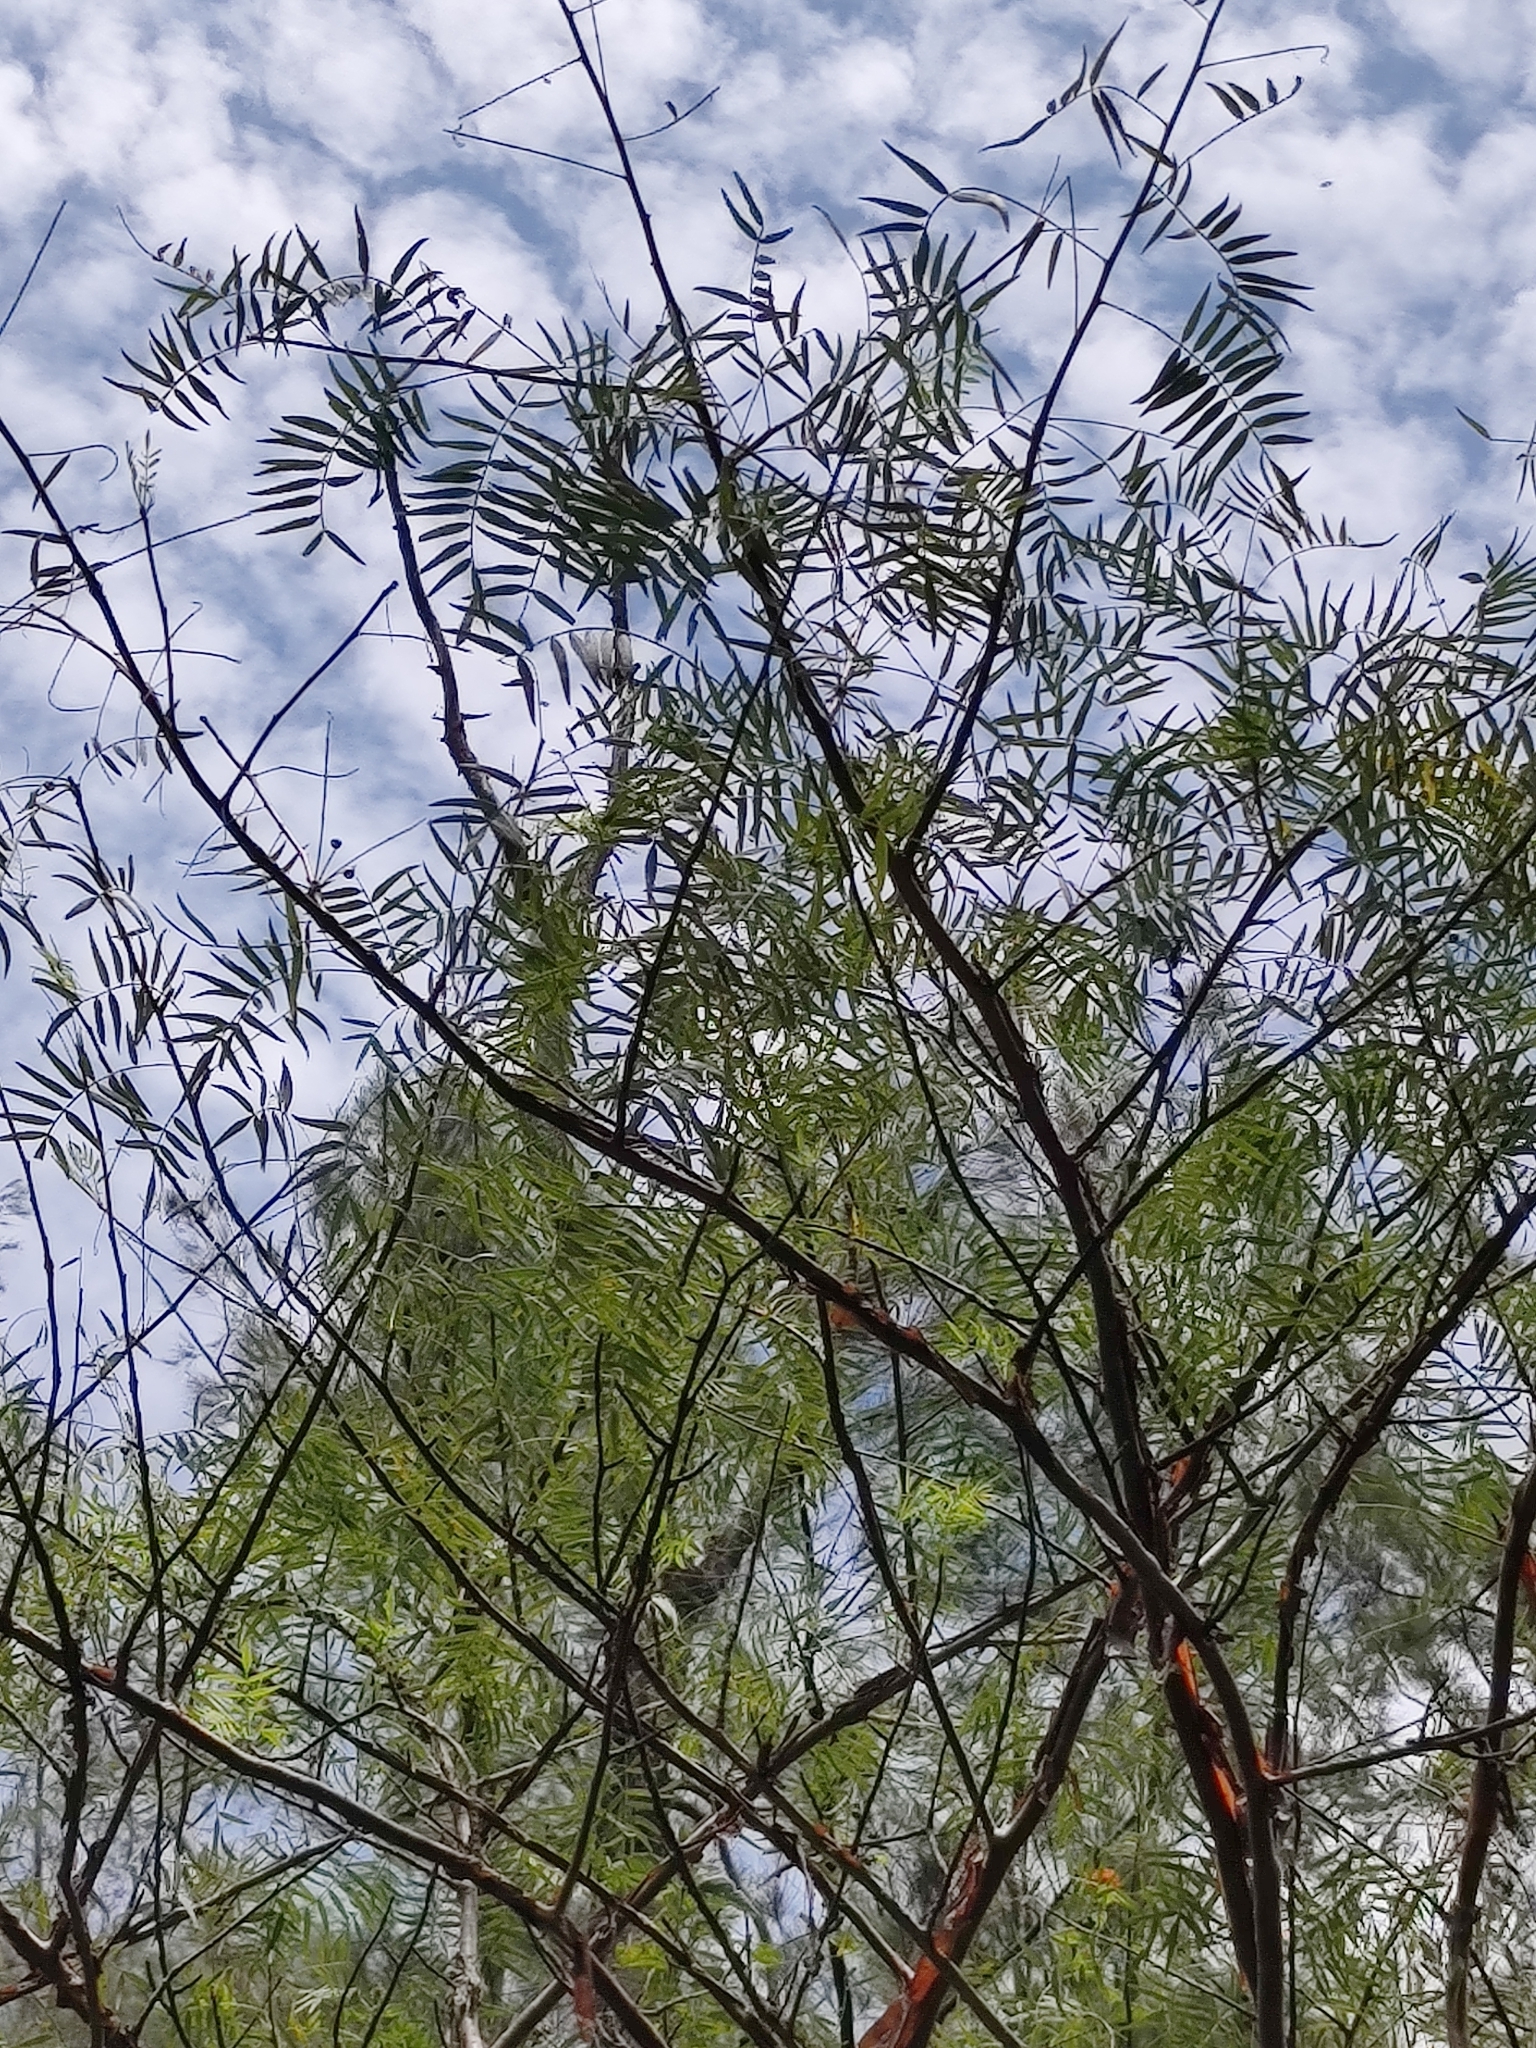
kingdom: Plantae
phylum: Tracheophyta
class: Magnoliopsida
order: Sapindales
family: Burseraceae
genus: Bursera
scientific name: Bursera multijuga
